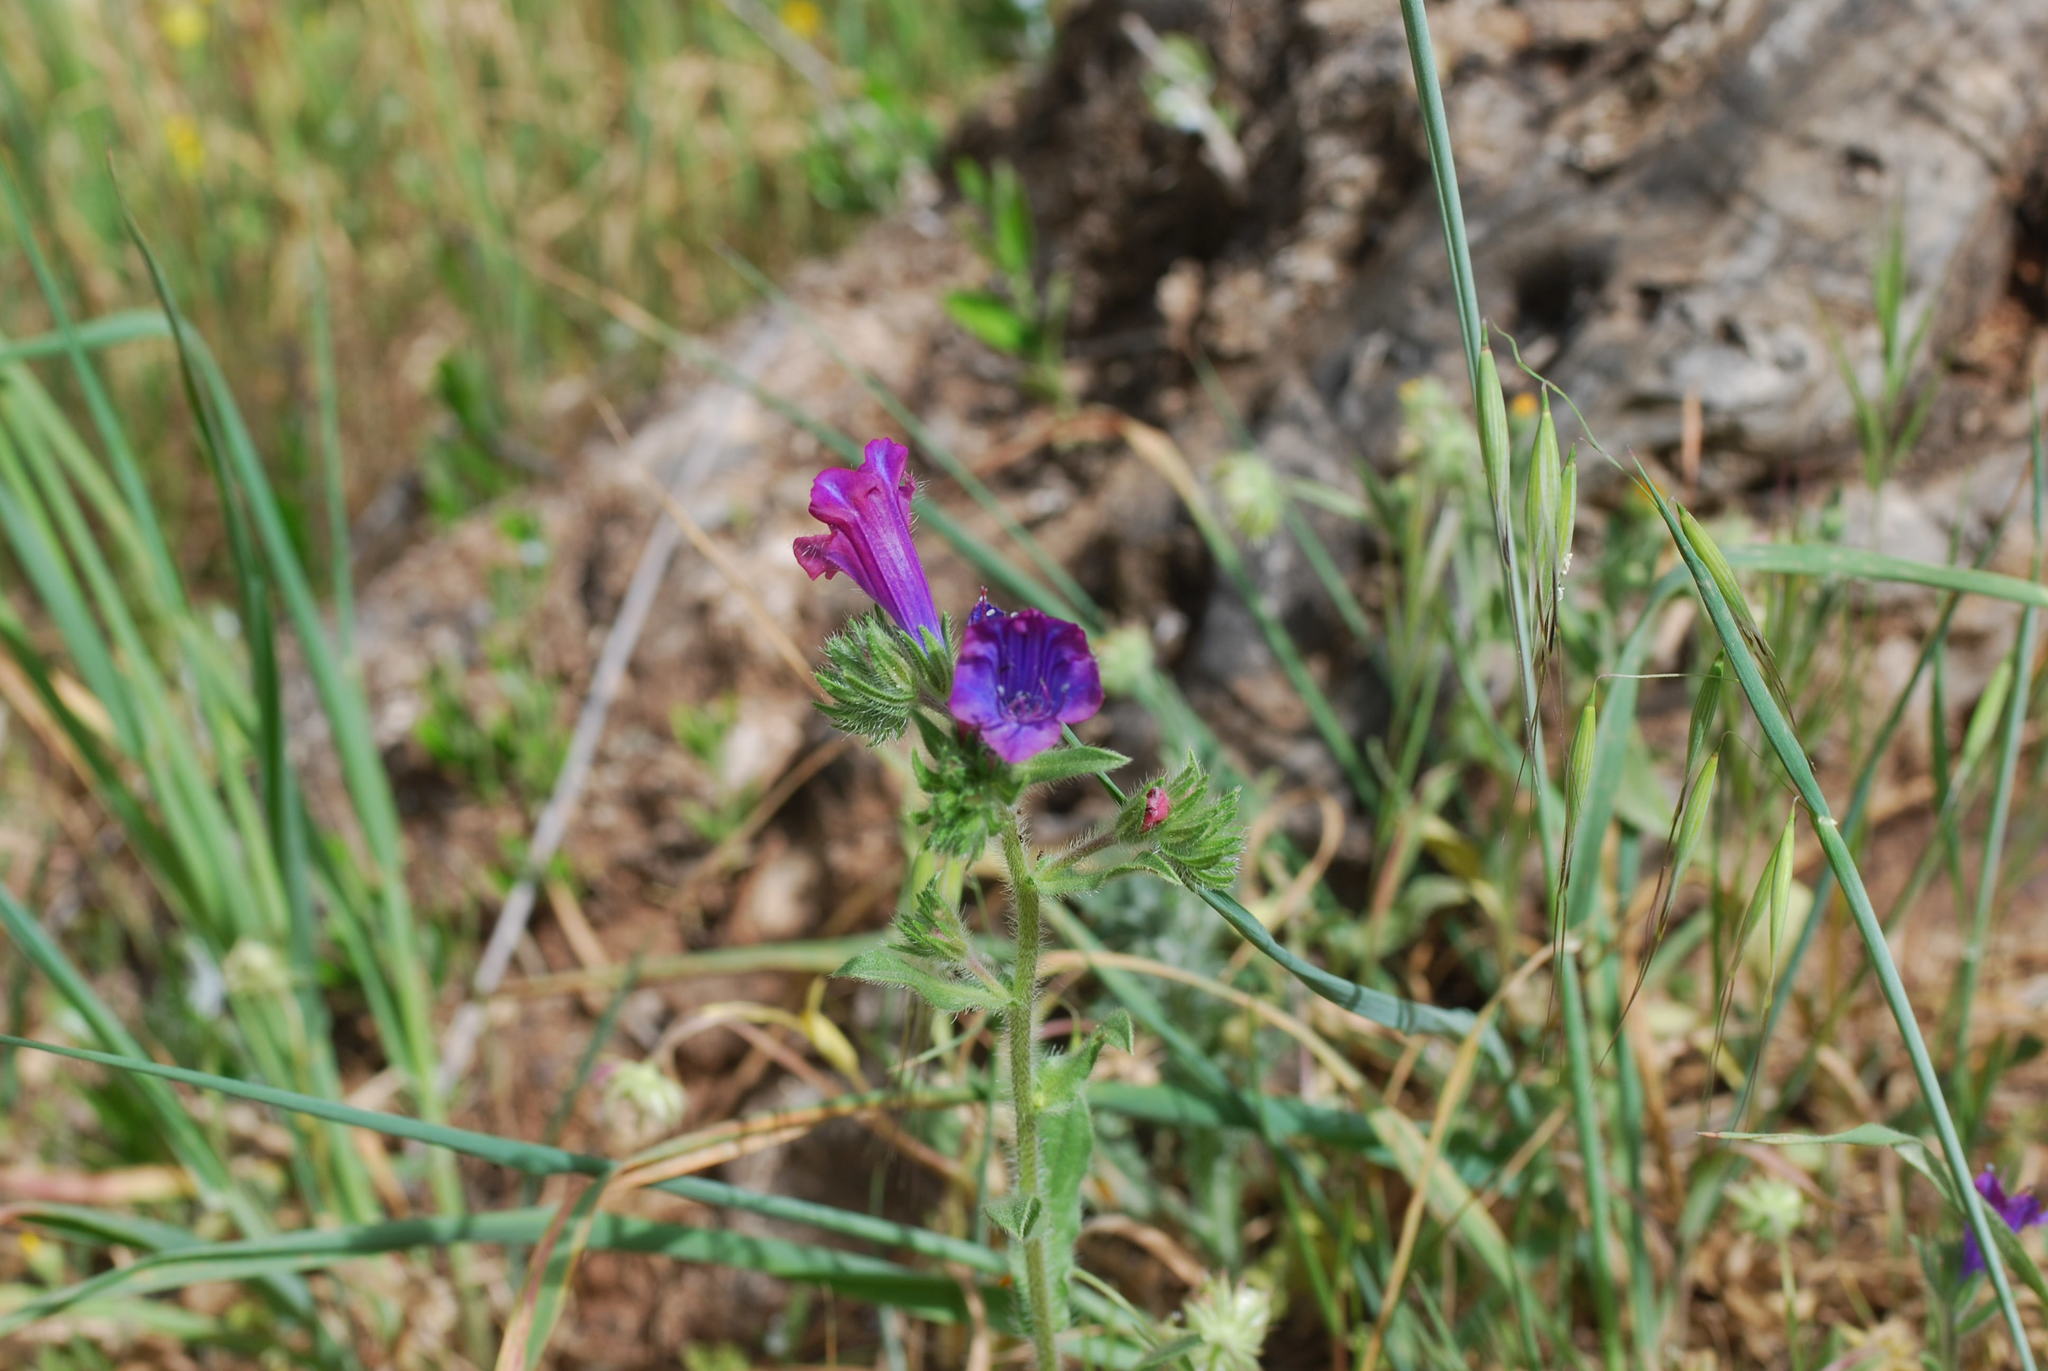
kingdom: Plantae
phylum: Tracheophyta
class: Magnoliopsida
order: Boraginales
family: Boraginaceae
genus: Echium
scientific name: Echium plantagineum
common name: Purple viper's-bugloss
